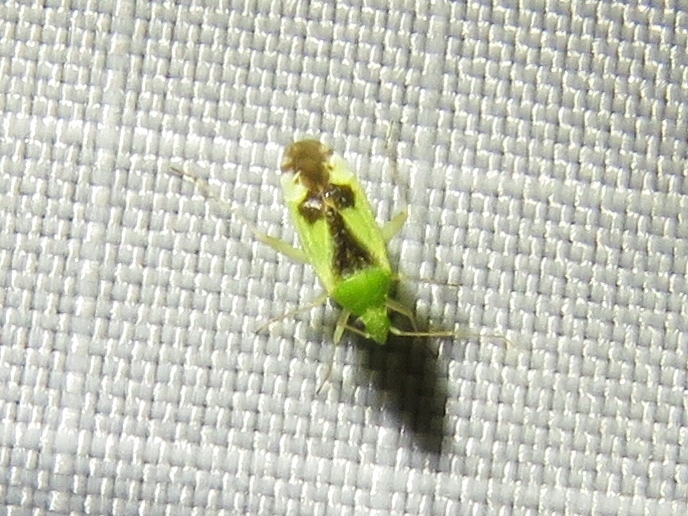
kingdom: Animalia
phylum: Arthropoda
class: Insecta
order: Hemiptera
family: Miridae
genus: Reuteroscopus
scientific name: Reuteroscopus ornatus
